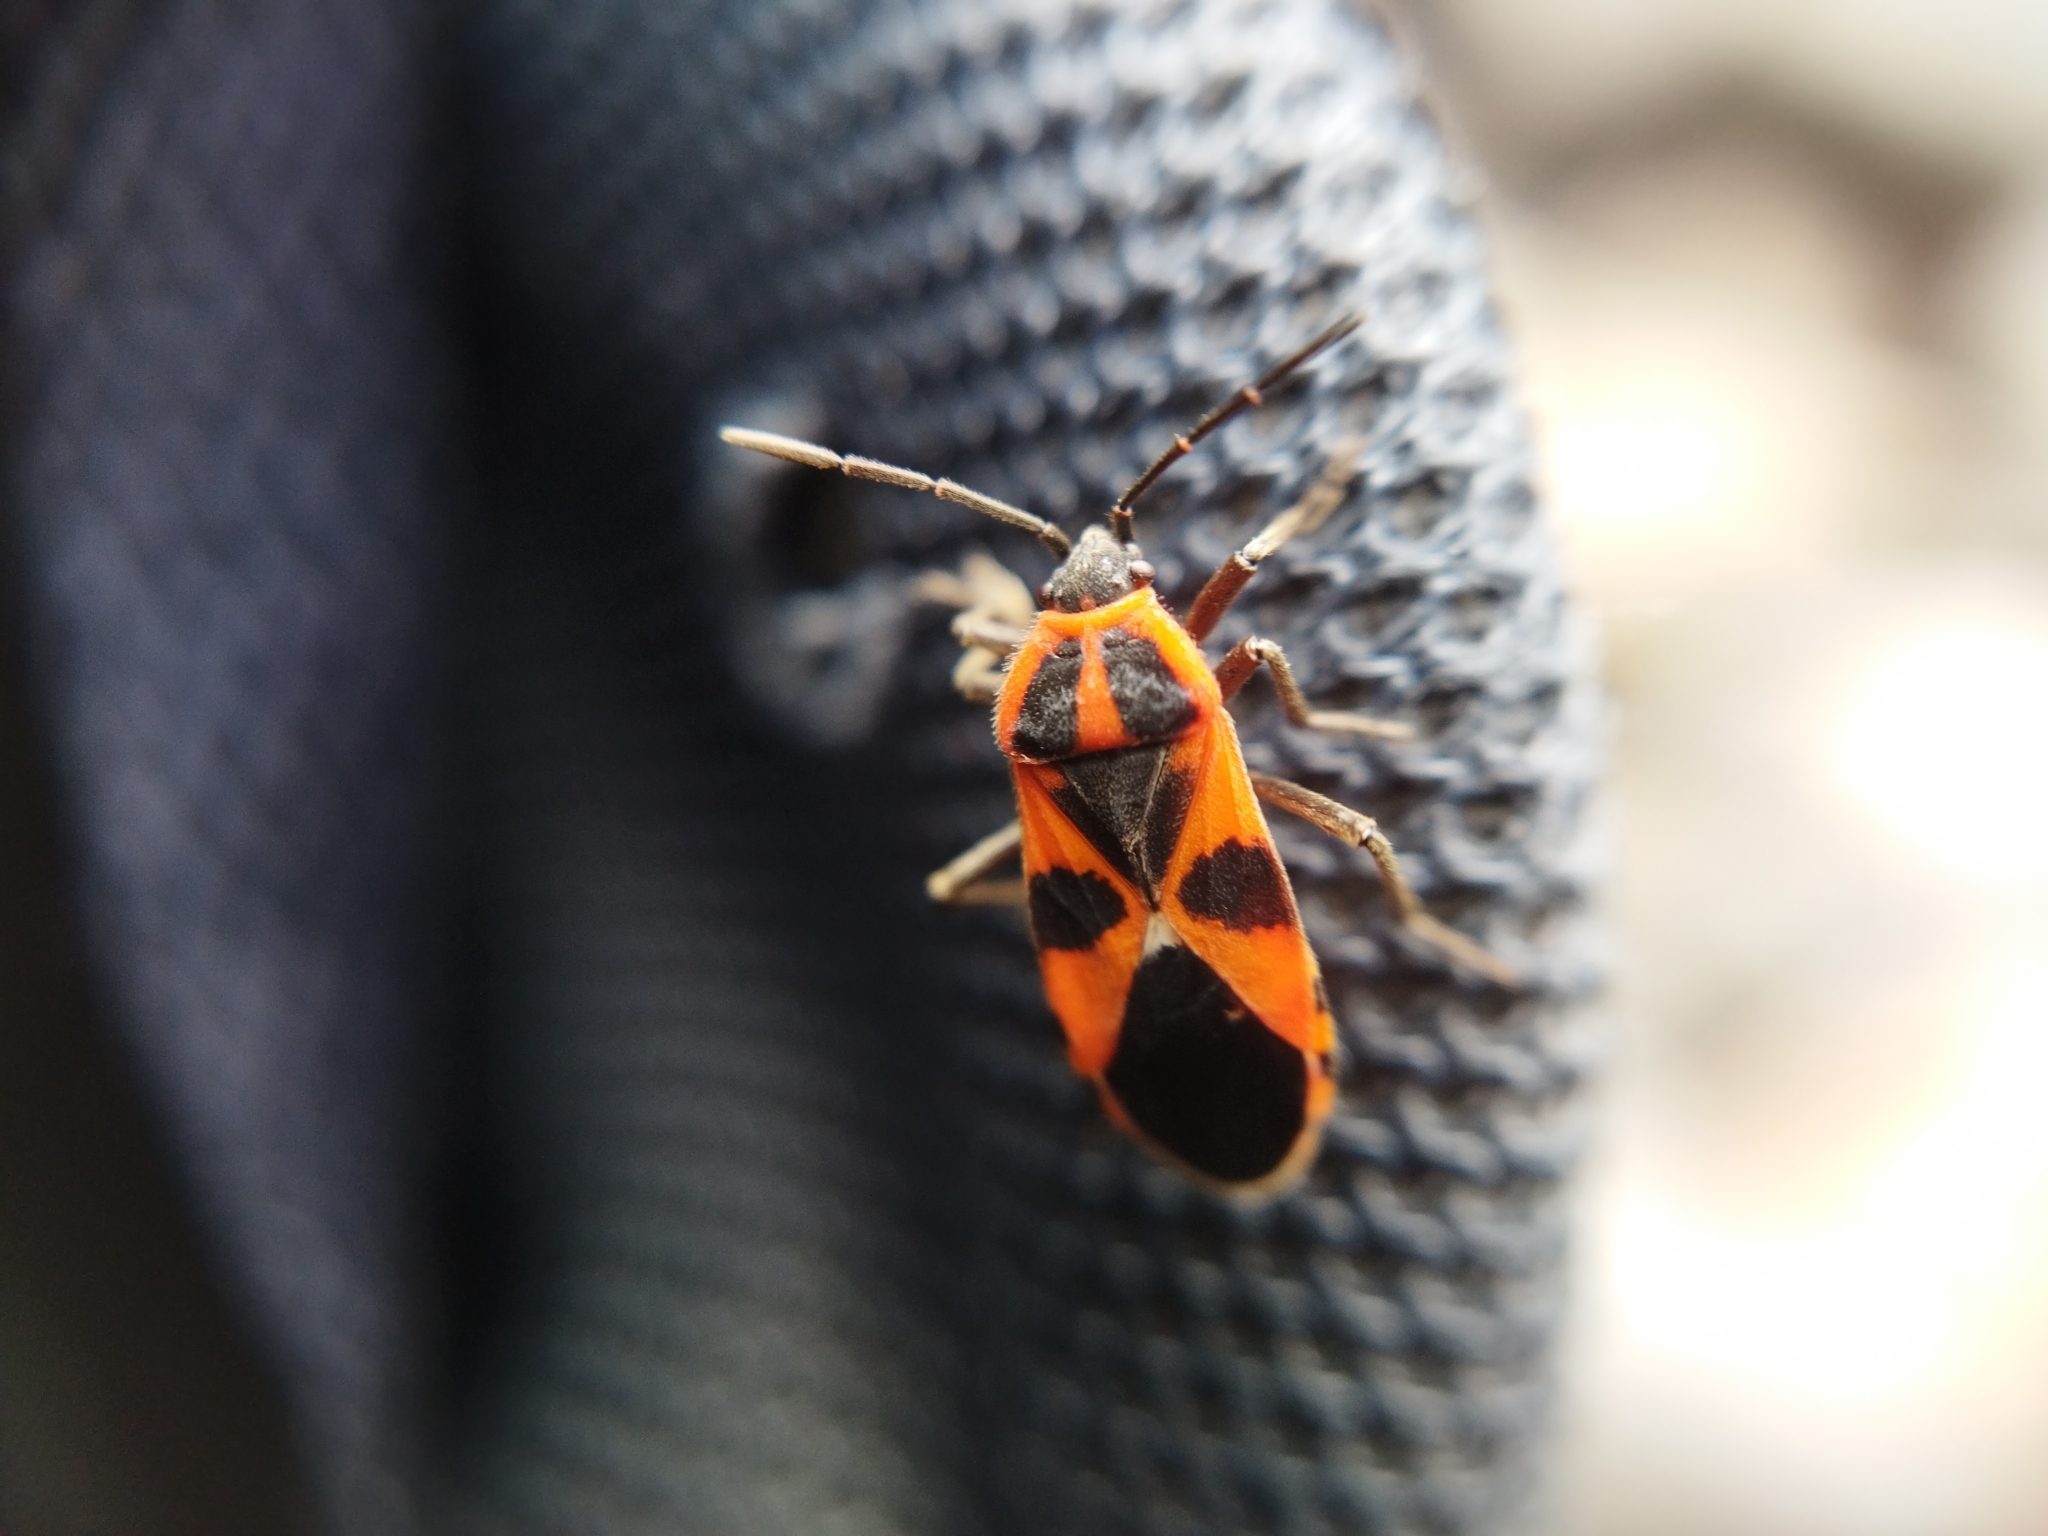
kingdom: Animalia
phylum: Arthropoda
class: Insecta
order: Hemiptera
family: Lygaeidae
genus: Tropidothorax
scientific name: Tropidothorax leucopterus
